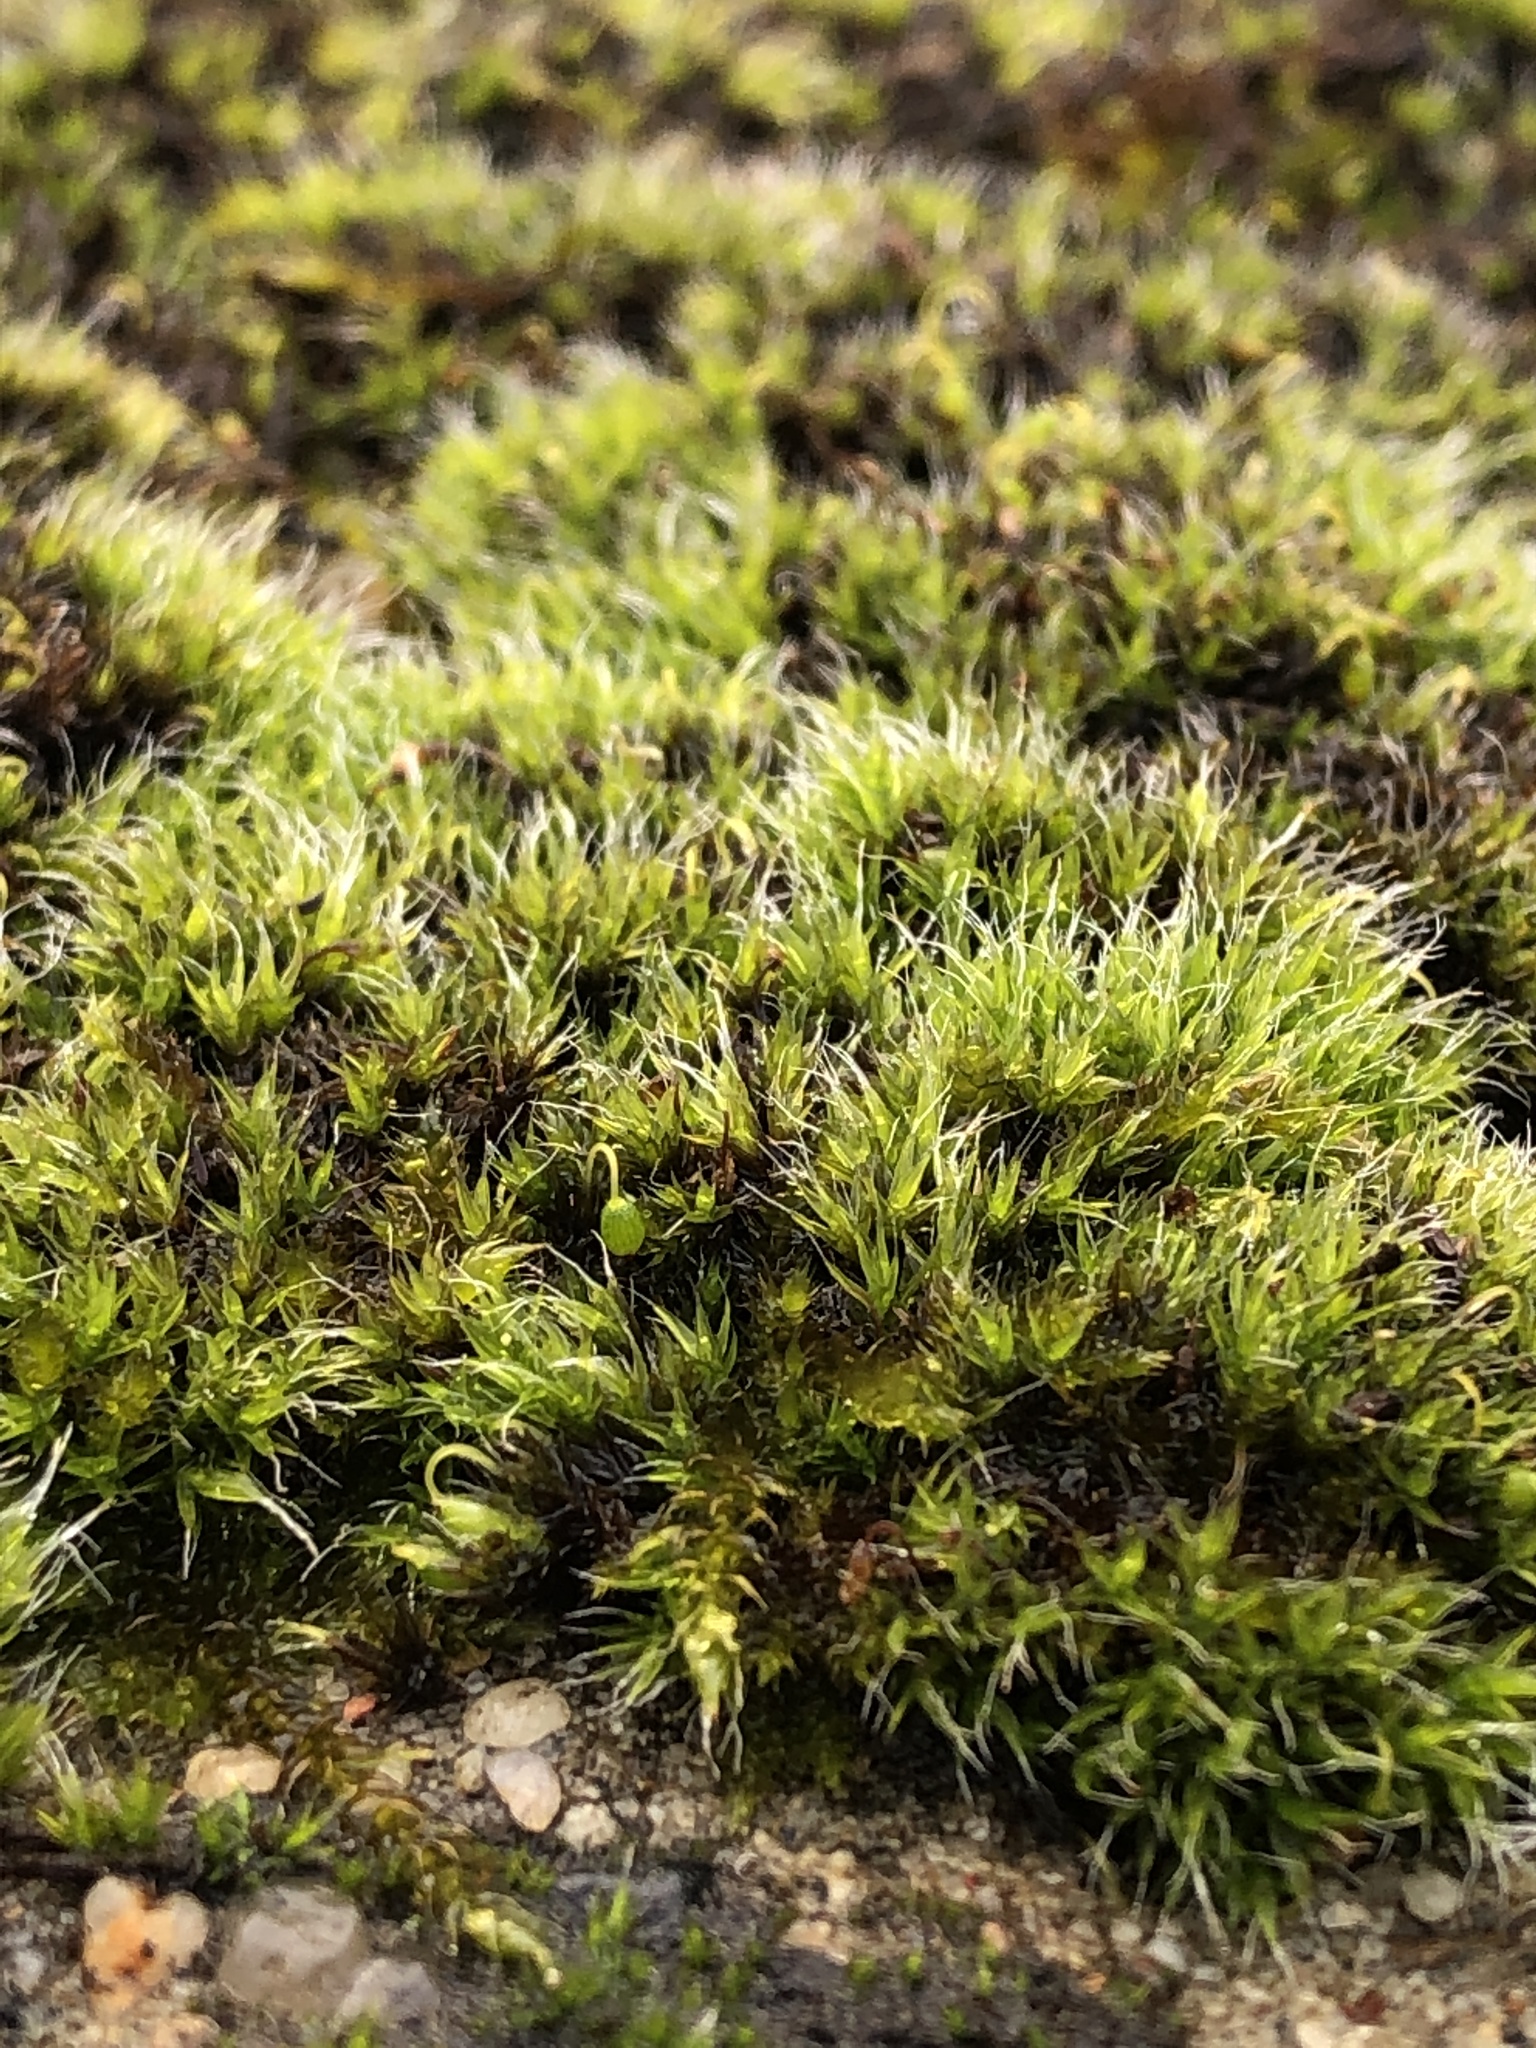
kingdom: Plantae
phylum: Bryophyta
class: Bryopsida
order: Grimmiales
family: Grimmiaceae
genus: Grimmia
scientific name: Grimmia pulvinata
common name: Grey-cushioned grimmia
